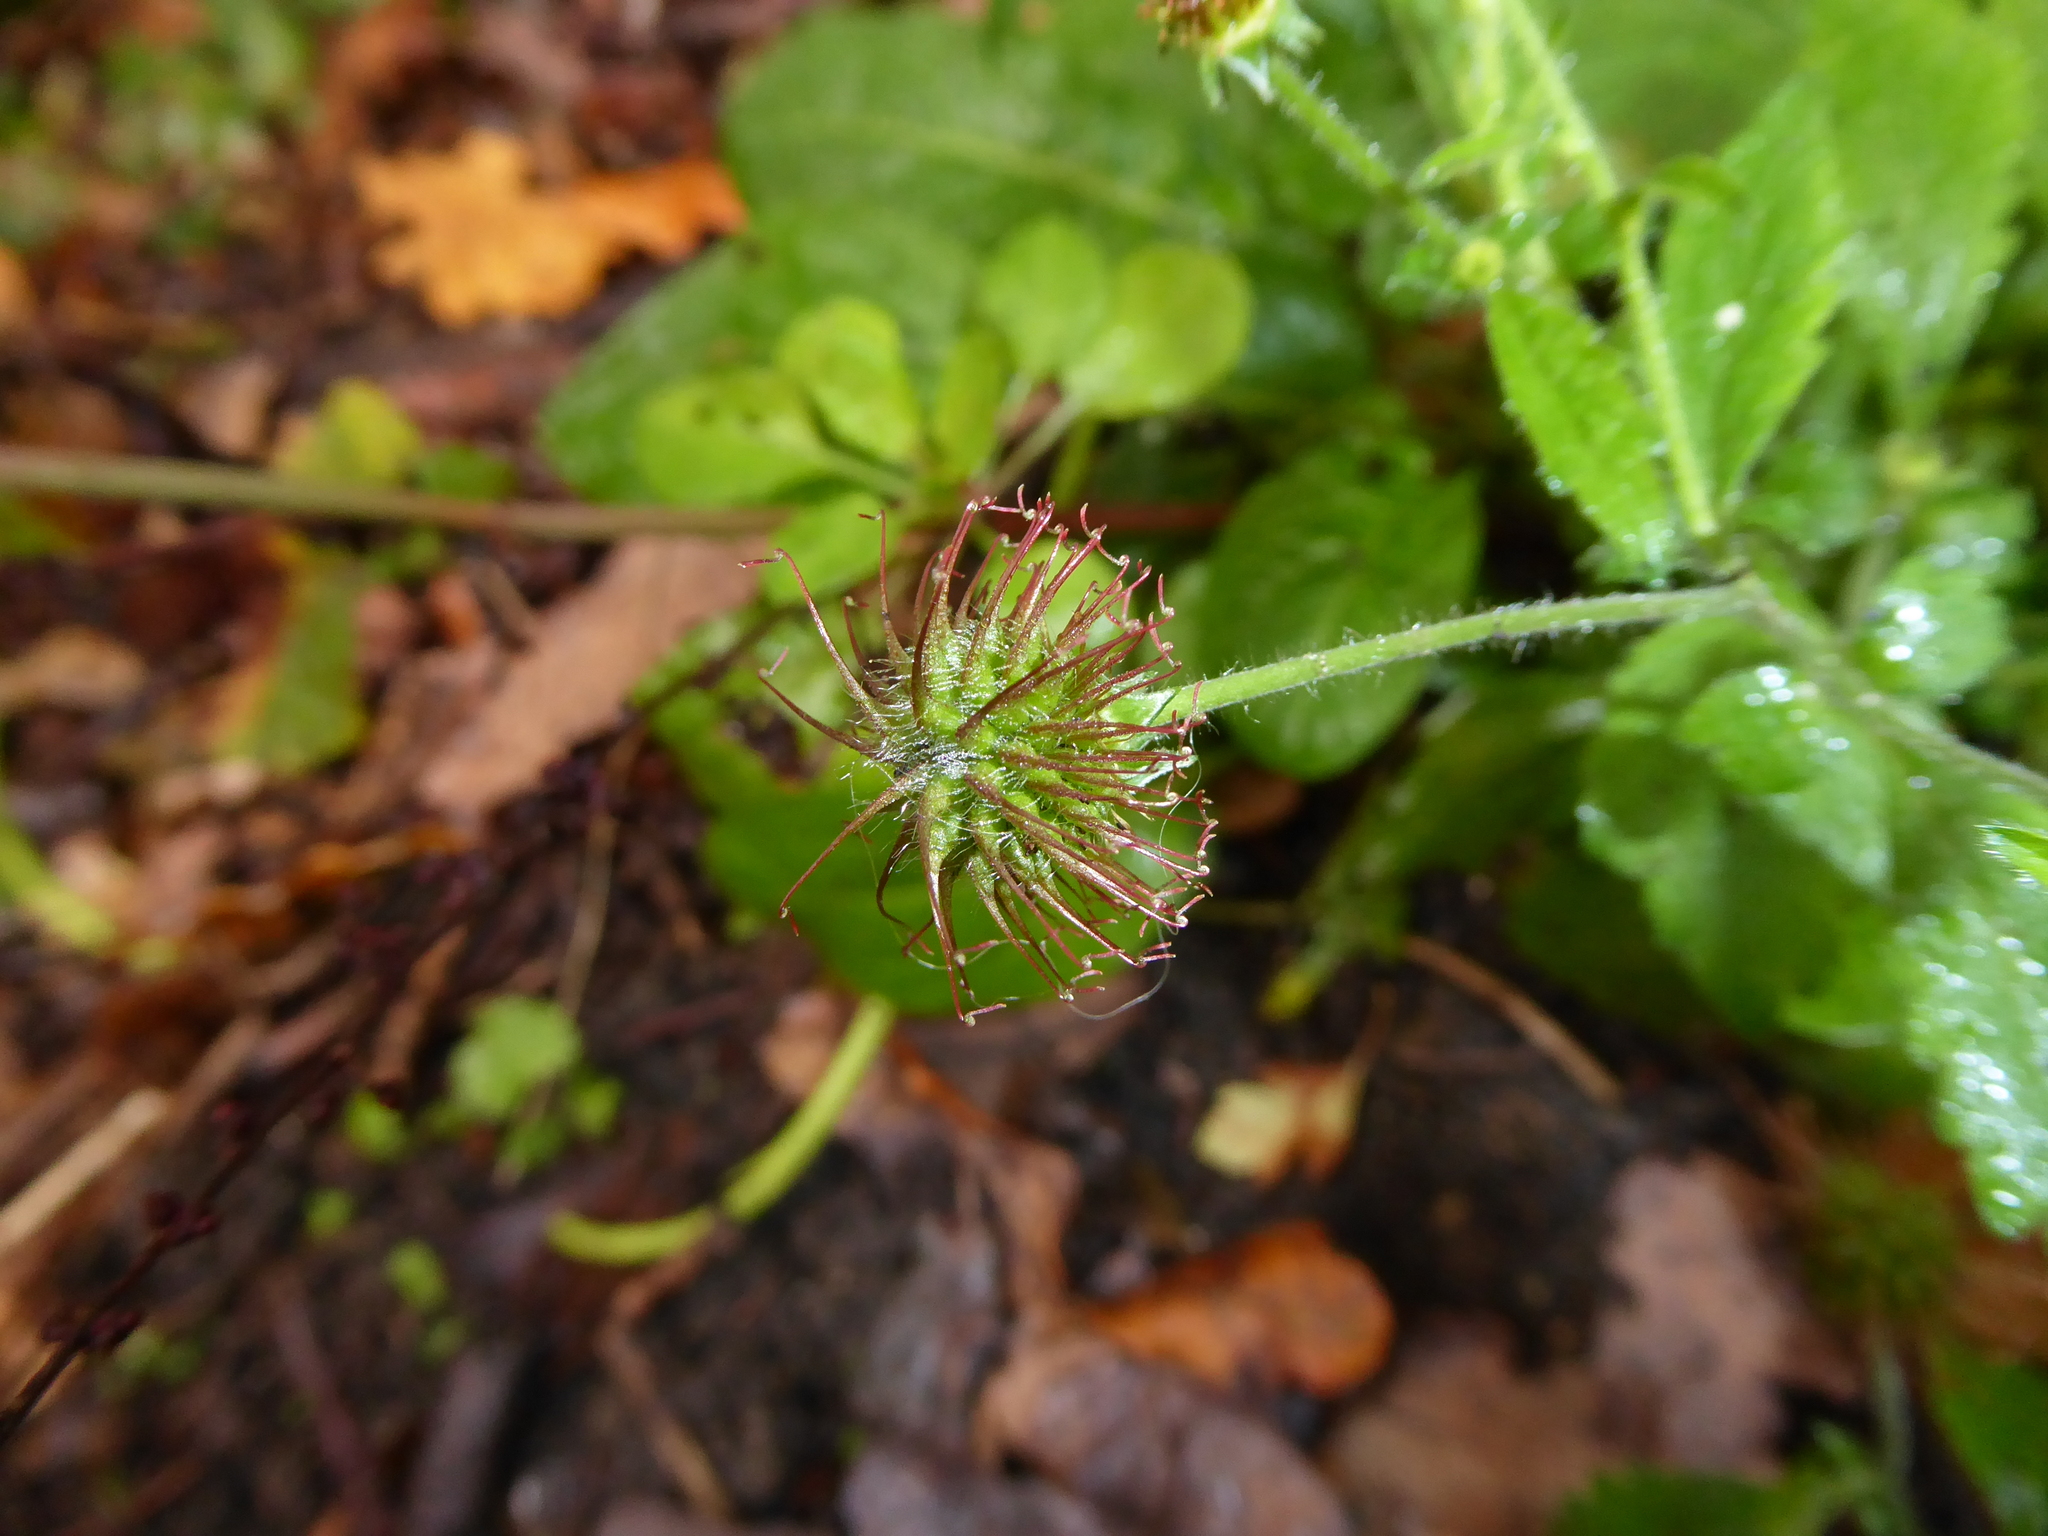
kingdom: Plantae
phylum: Tracheophyta
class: Magnoliopsida
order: Rosales
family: Rosaceae
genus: Geum
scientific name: Geum urbanum
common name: Wood avens
